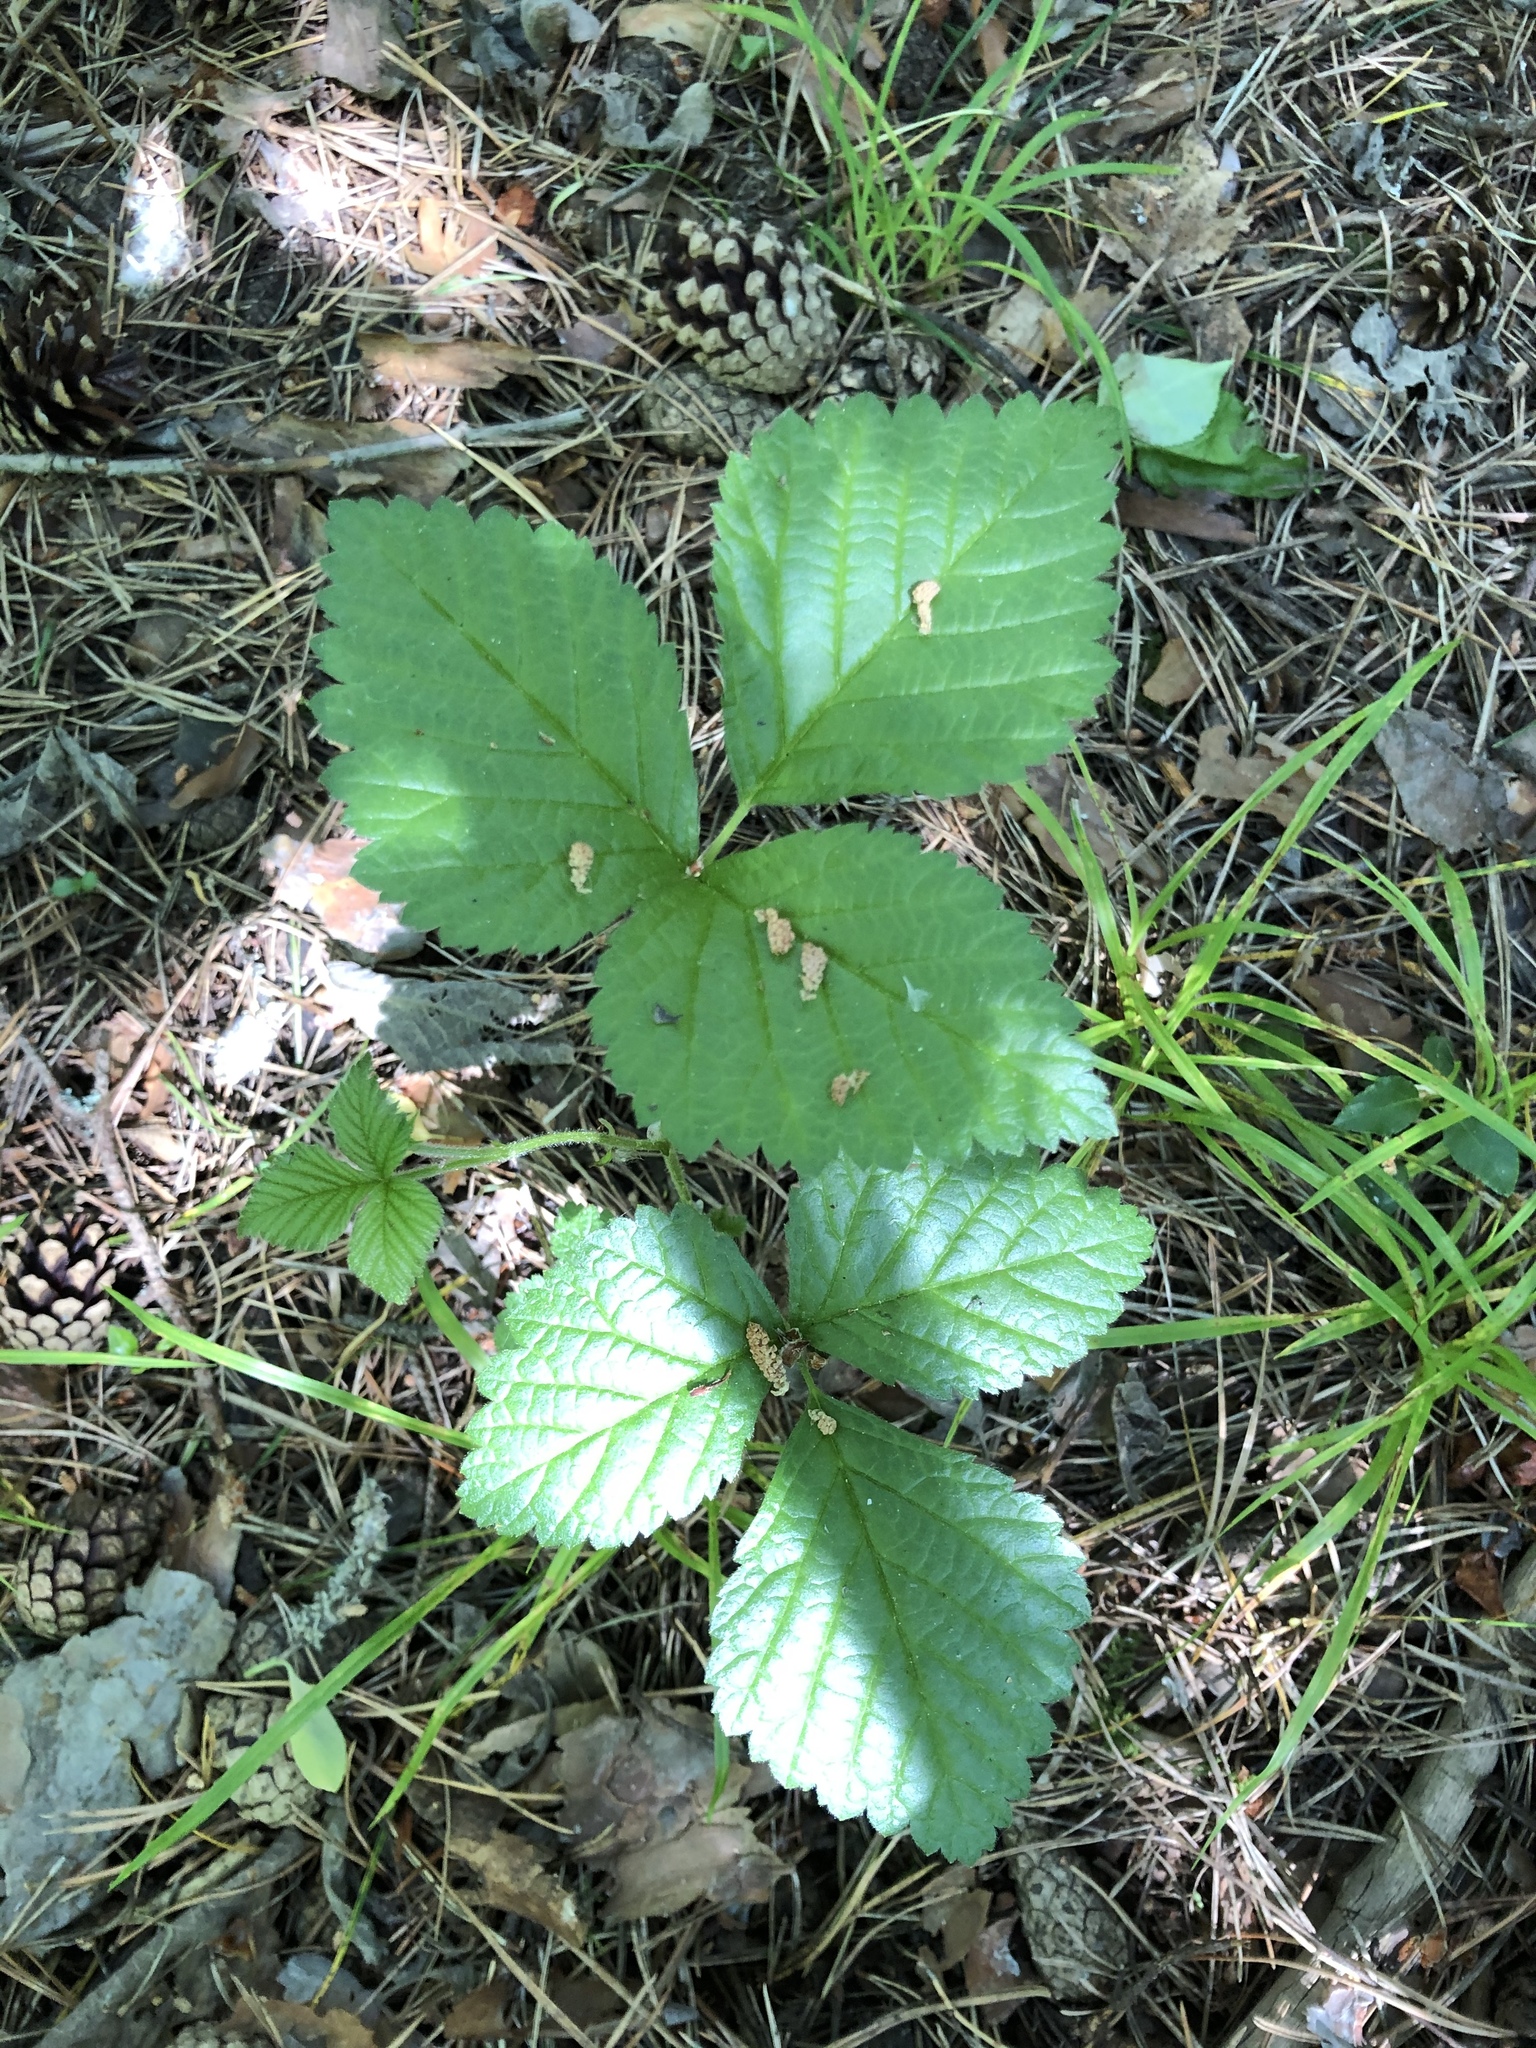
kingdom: Plantae
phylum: Tracheophyta
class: Magnoliopsida
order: Rosales
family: Rosaceae
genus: Rubus
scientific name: Rubus saxatilis
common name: Stone bramble
